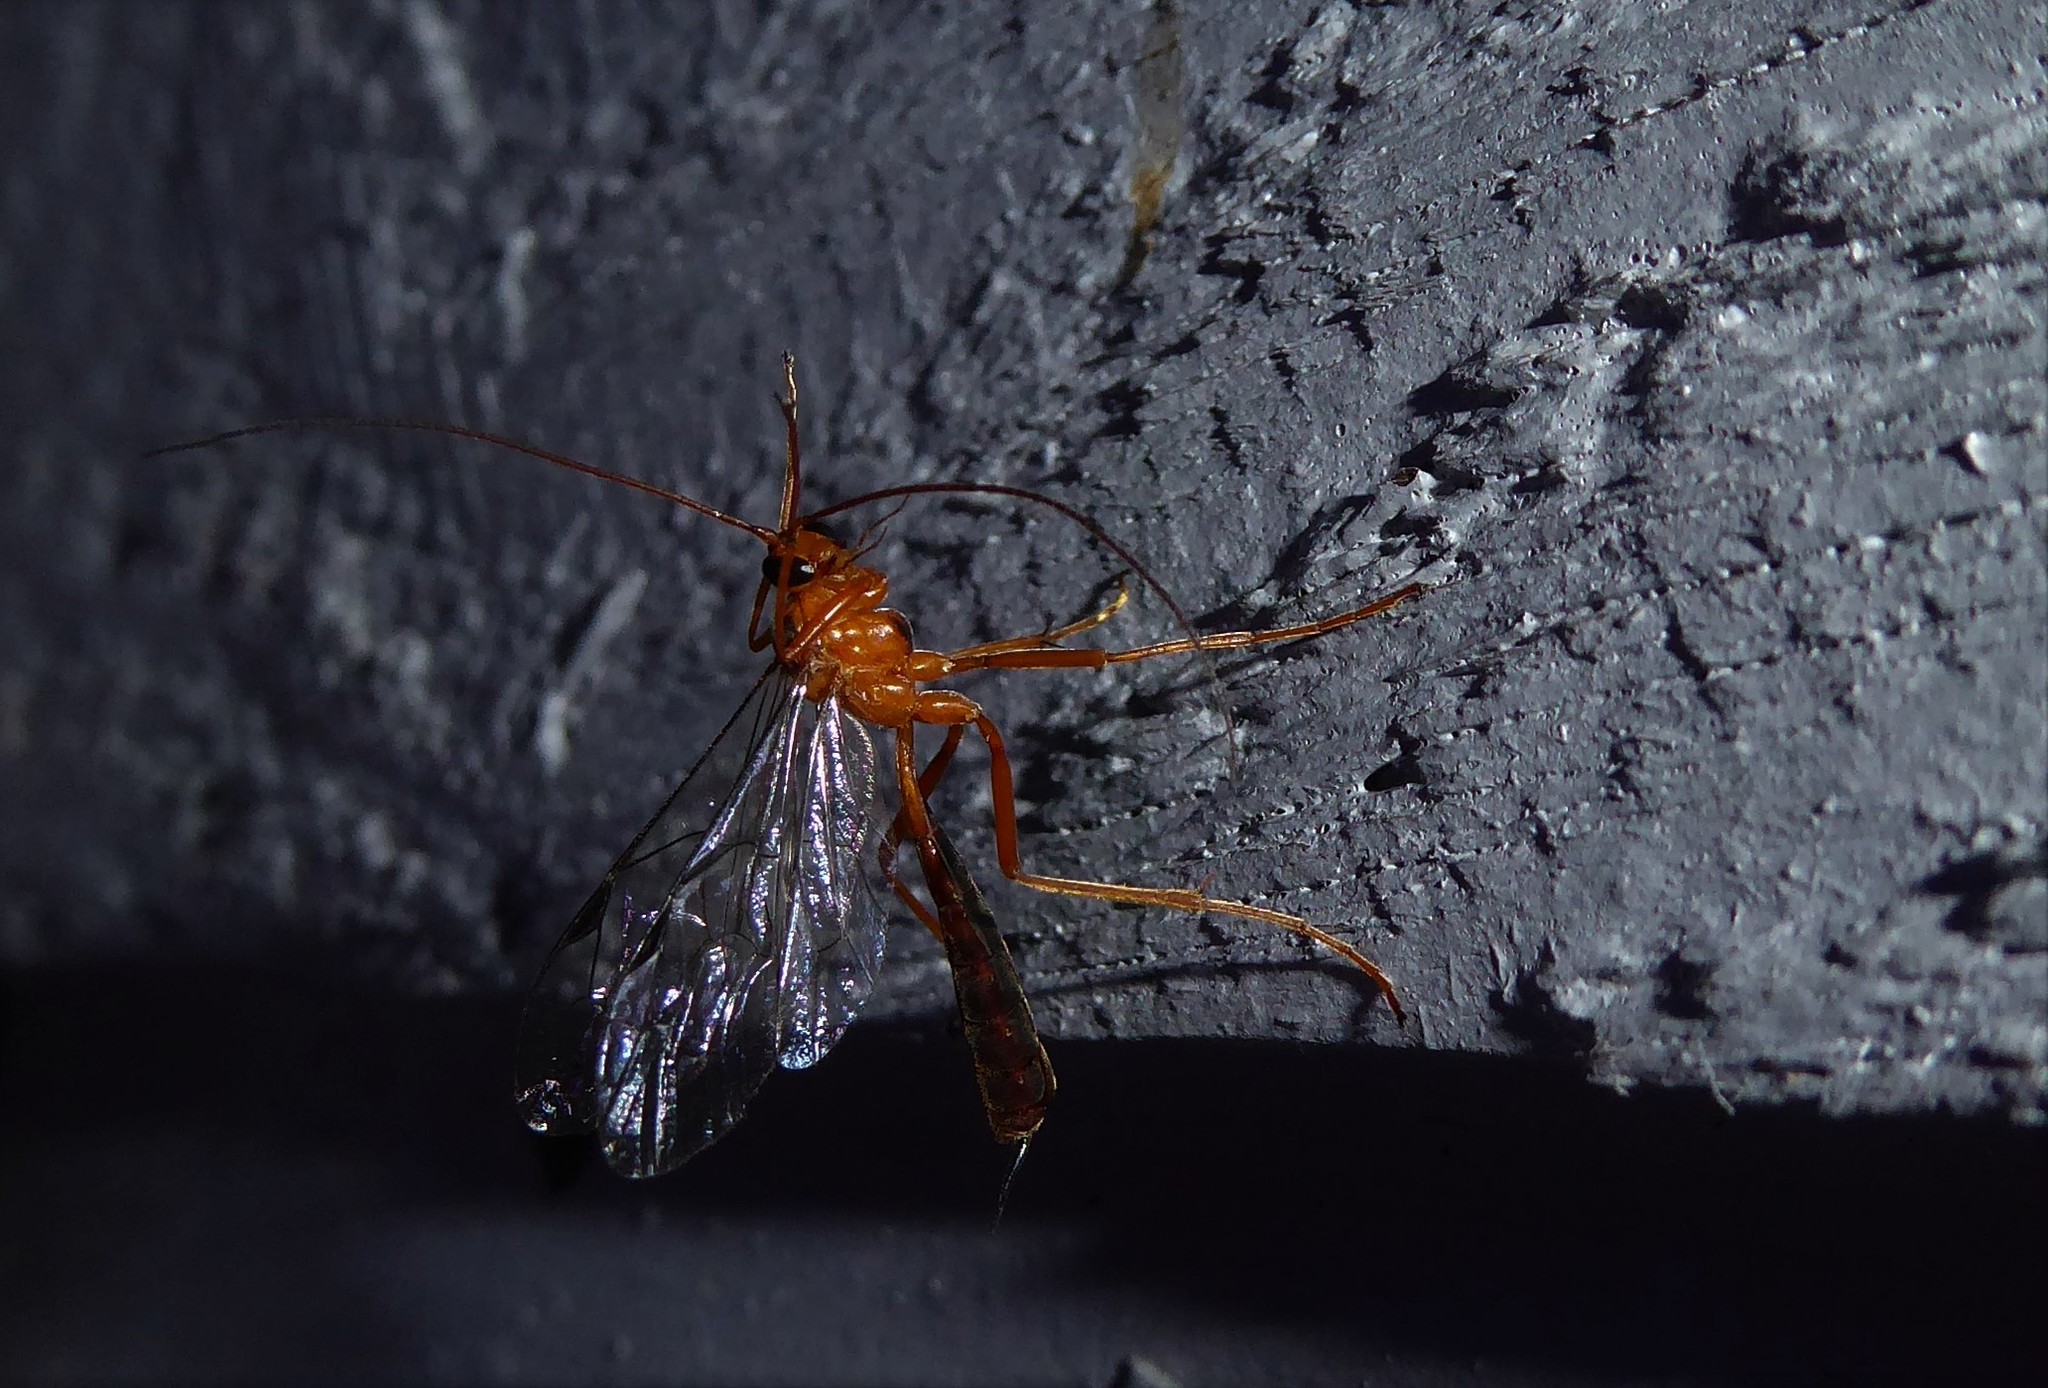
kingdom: Animalia
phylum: Arthropoda
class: Insecta
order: Hymenoptera
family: Ichneumonidae
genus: Netelia
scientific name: Netelia ephippiata
